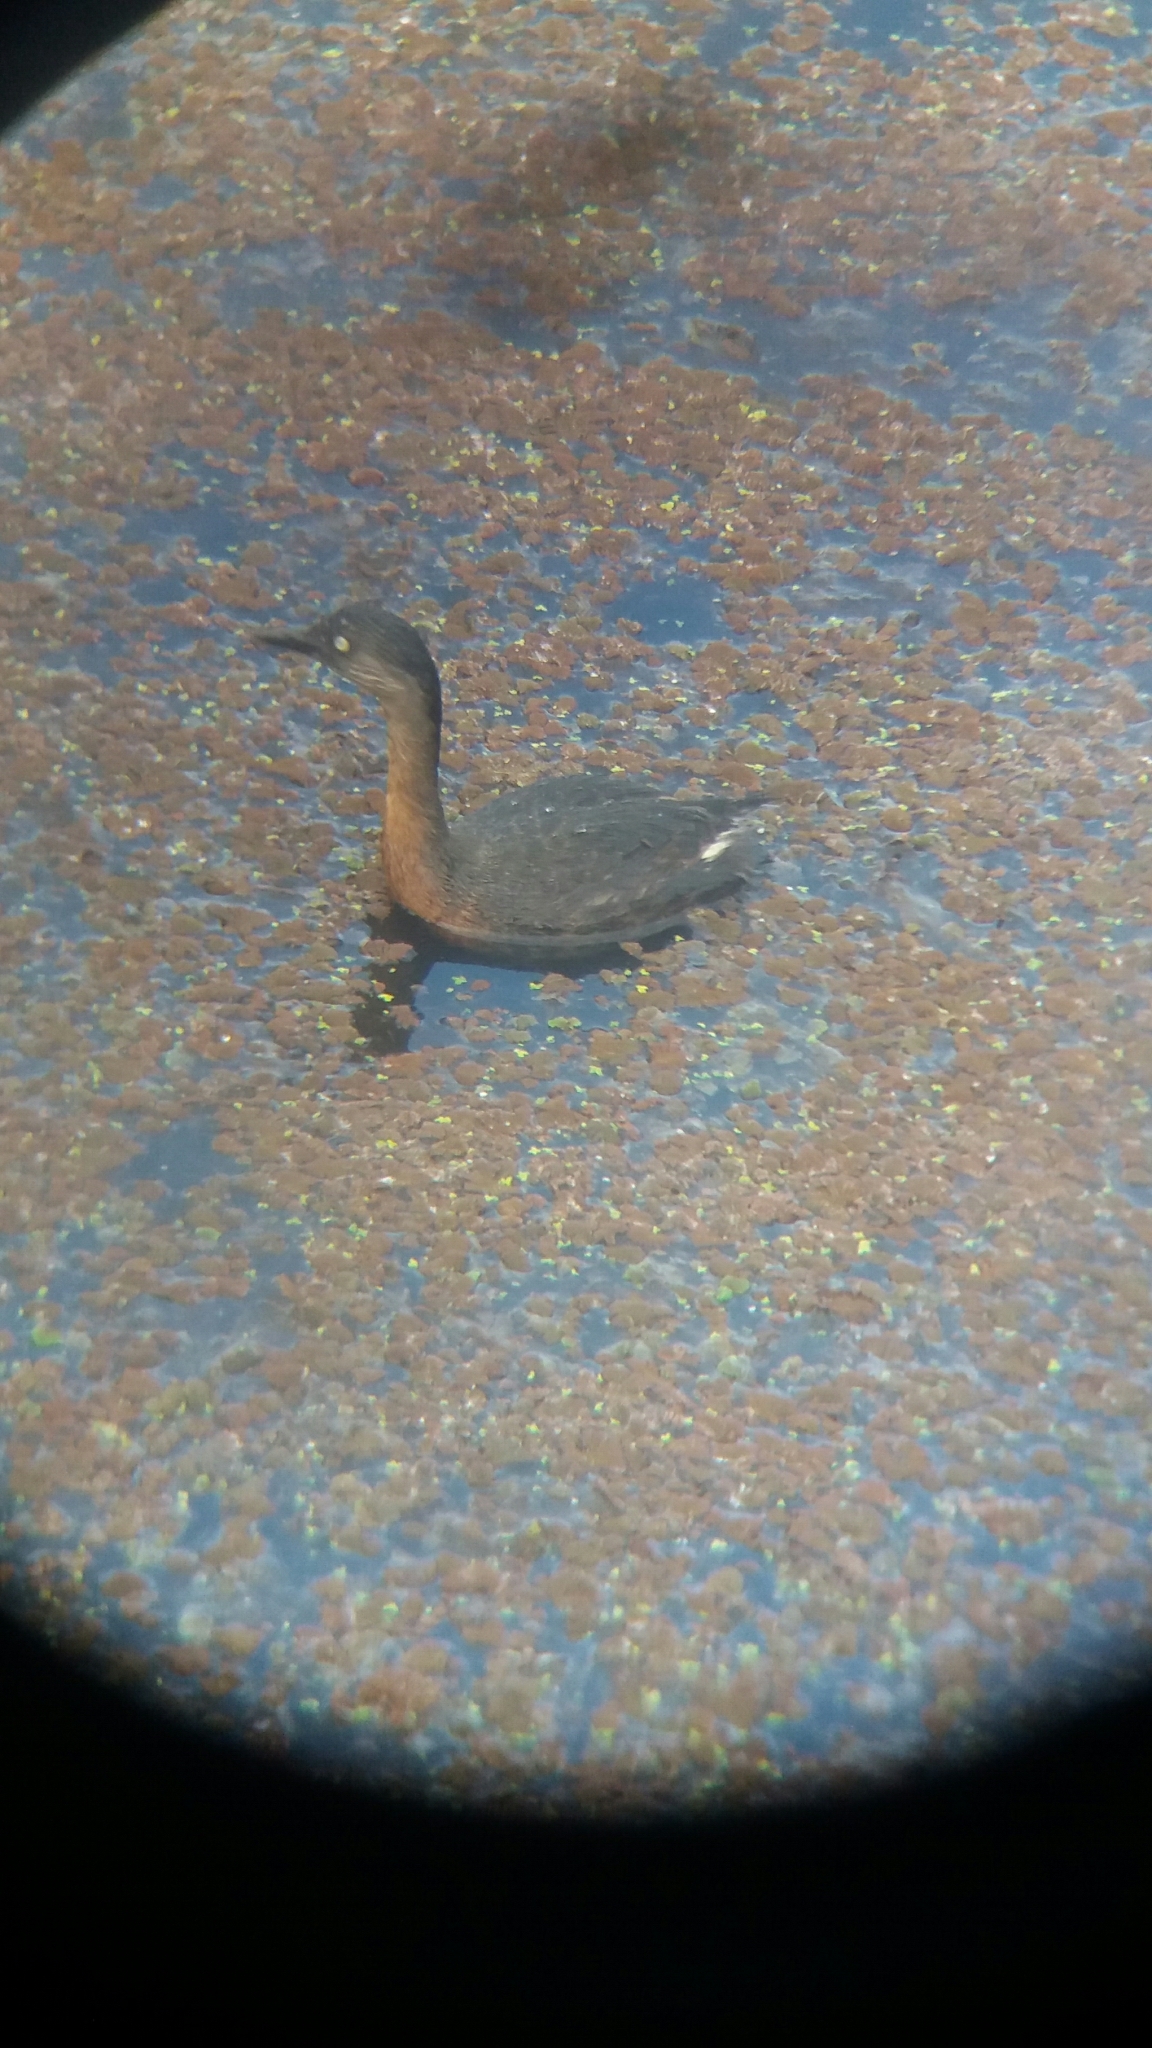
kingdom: Animalia
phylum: Chordata
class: Aves
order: Podicipediformes
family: Podicipedidae
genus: Poliocephalus
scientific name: Poliocephalus rufopectus
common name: New zealand grebe
